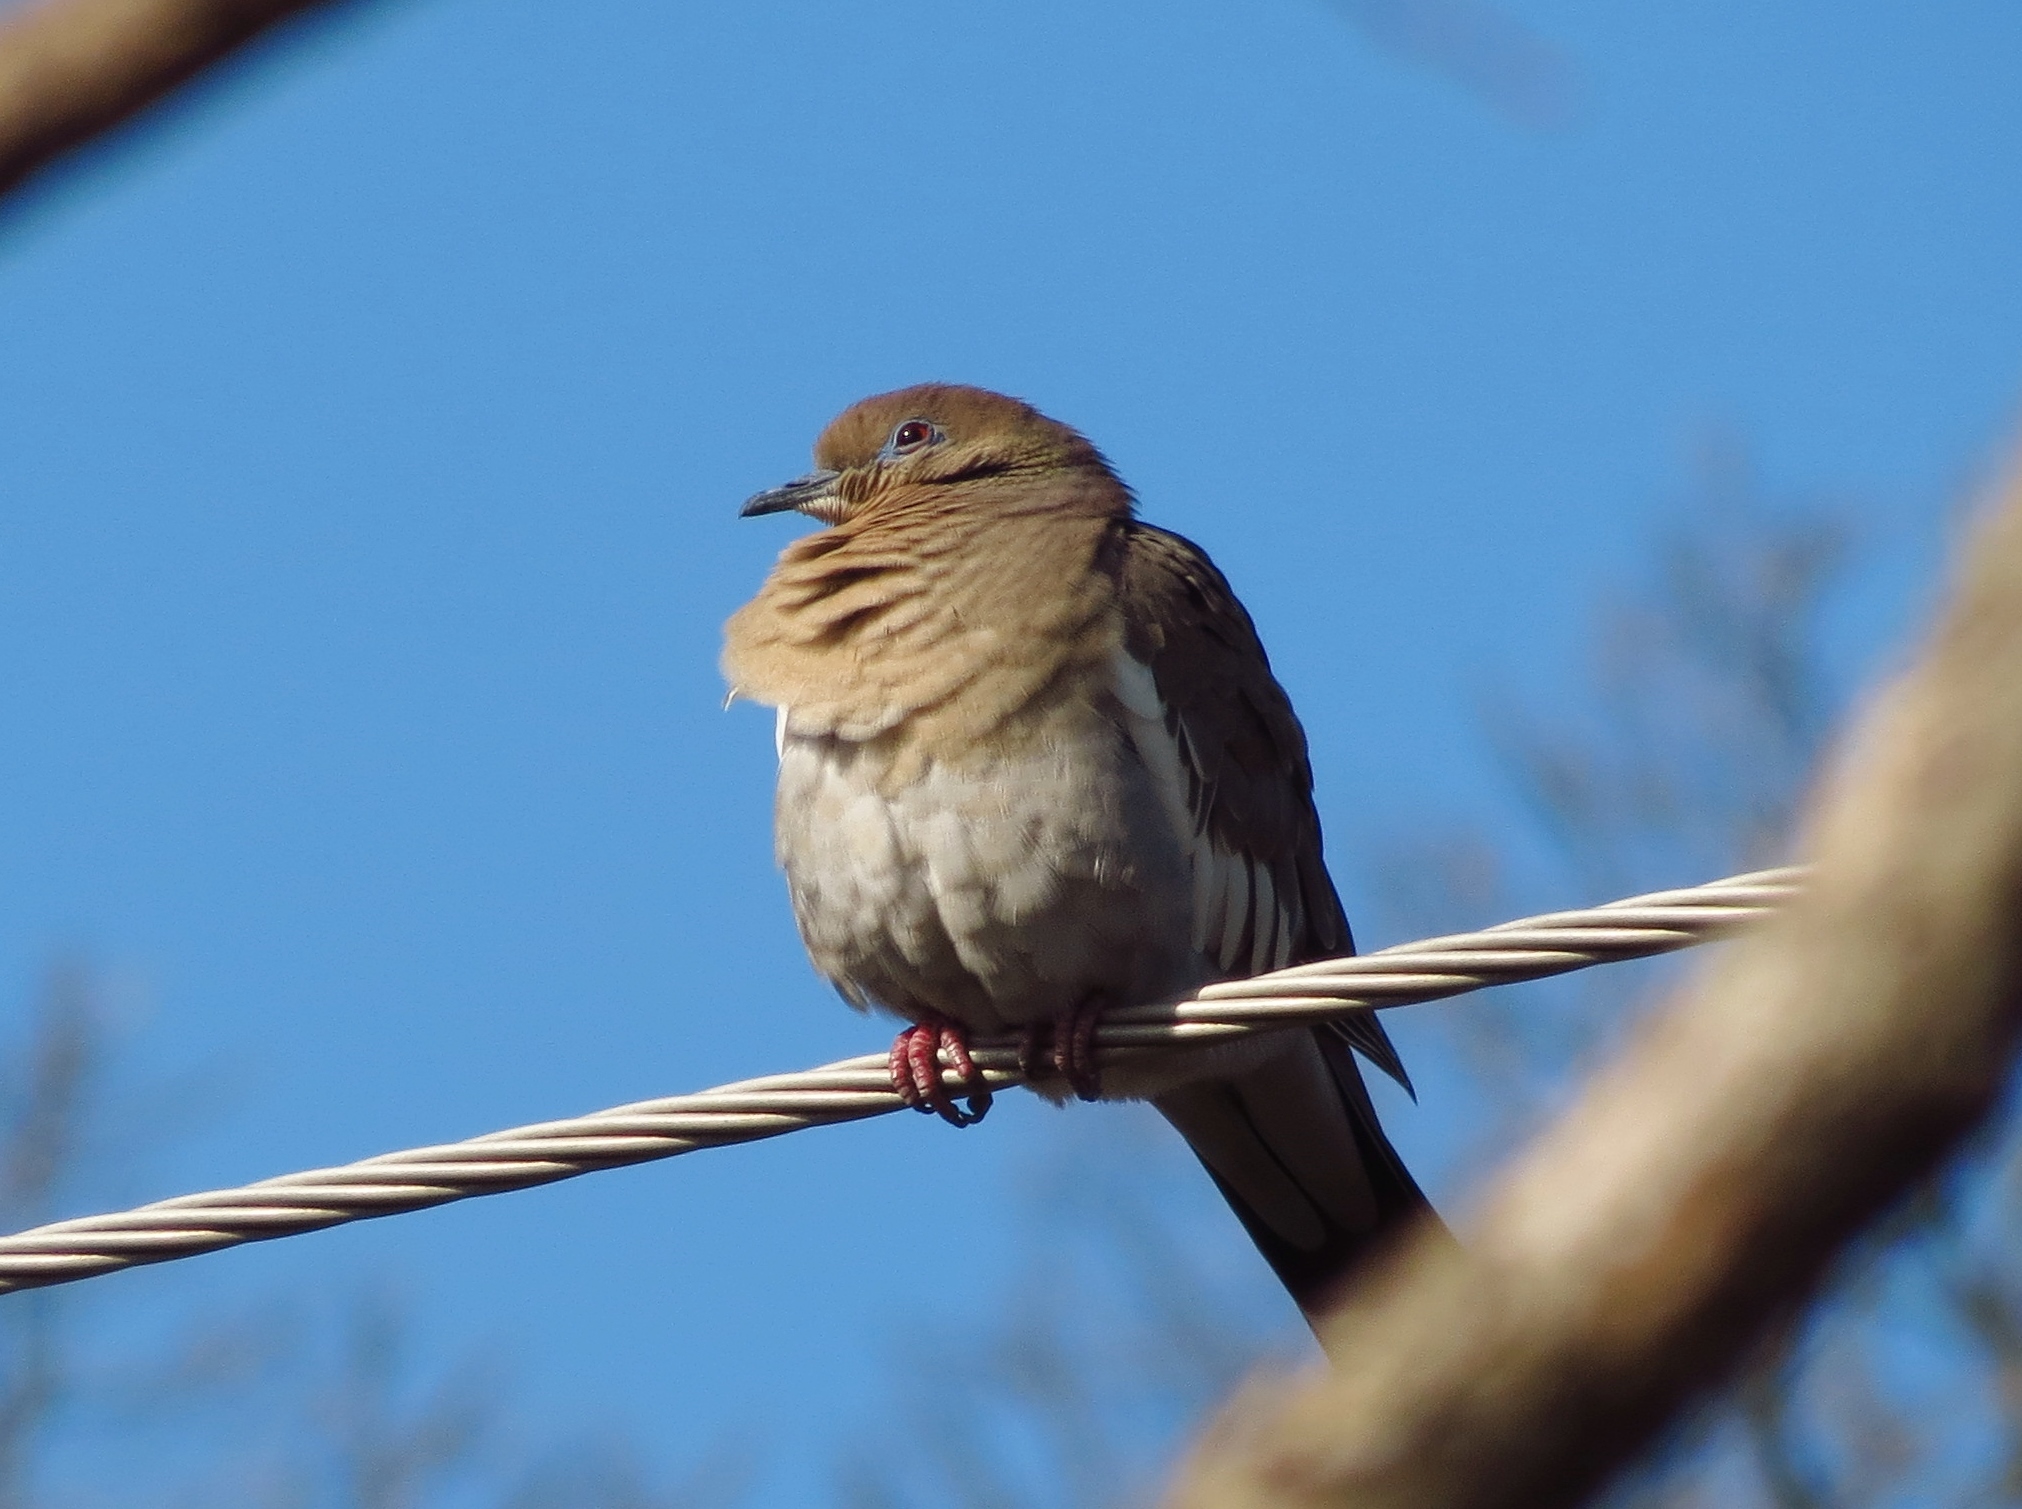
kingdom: Animalia
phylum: Chordata
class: Aves
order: Columbiformes
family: Columbidae
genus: Zenaida
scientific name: Zenaida asiatica
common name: White-winged dove
